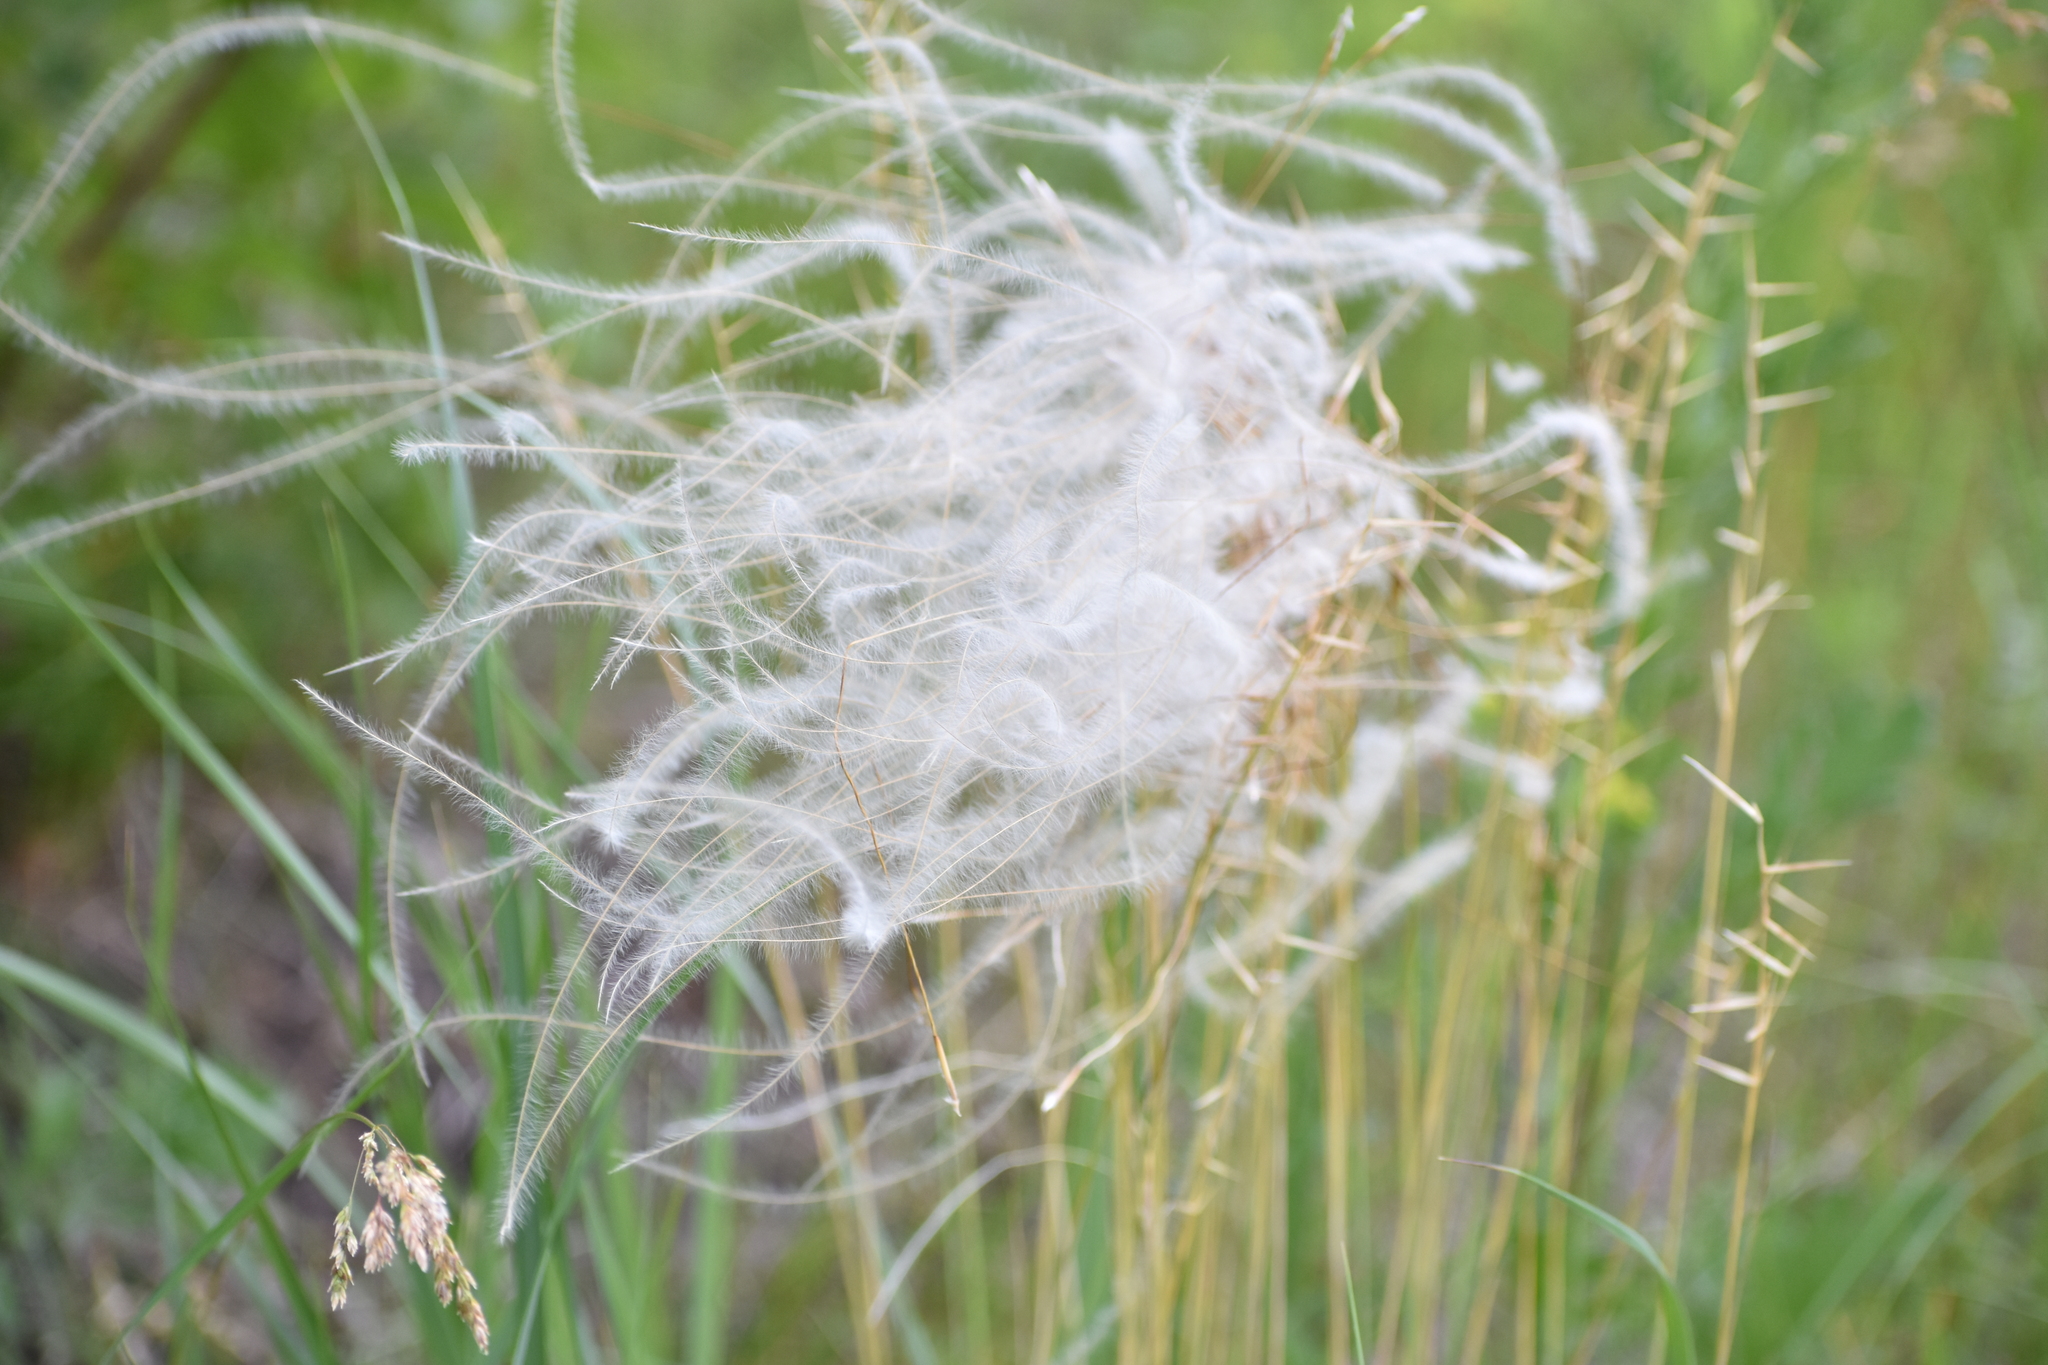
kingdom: Plantae
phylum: Tracheophyta
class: Liliopsida
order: Poales
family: Poaceae
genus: Stipa
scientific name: Stipa pennata
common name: European feather grass
